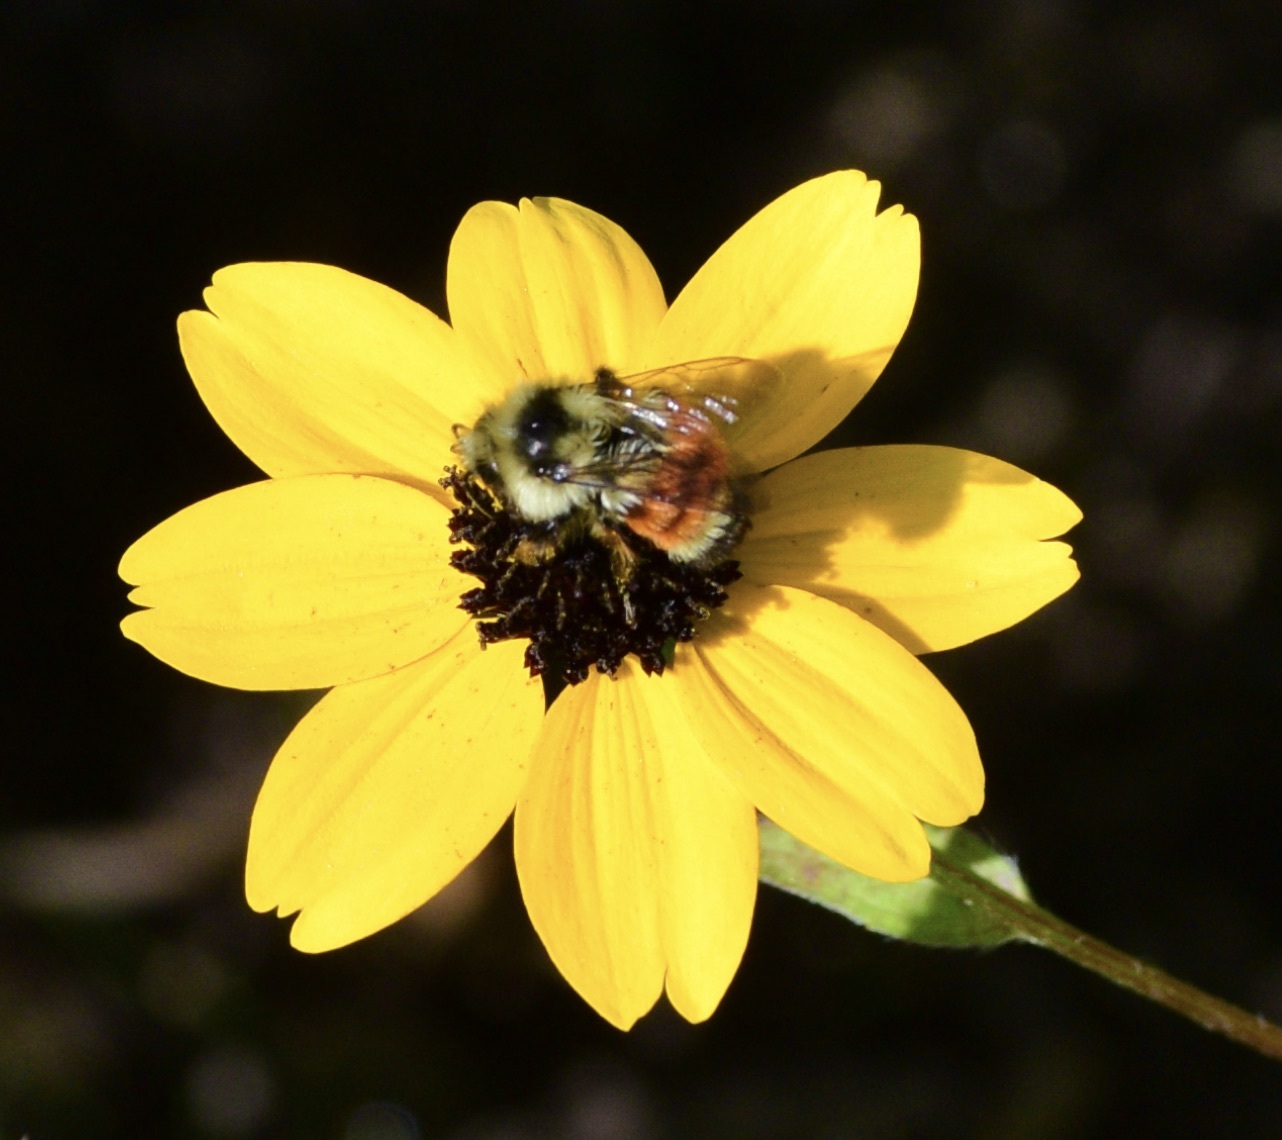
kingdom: Animalia
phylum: Arthropoda
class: Insecta
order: Hymenoptera
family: Apidae
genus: Bombus
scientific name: Bombus ternarius
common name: Tri-colored bumble bee
